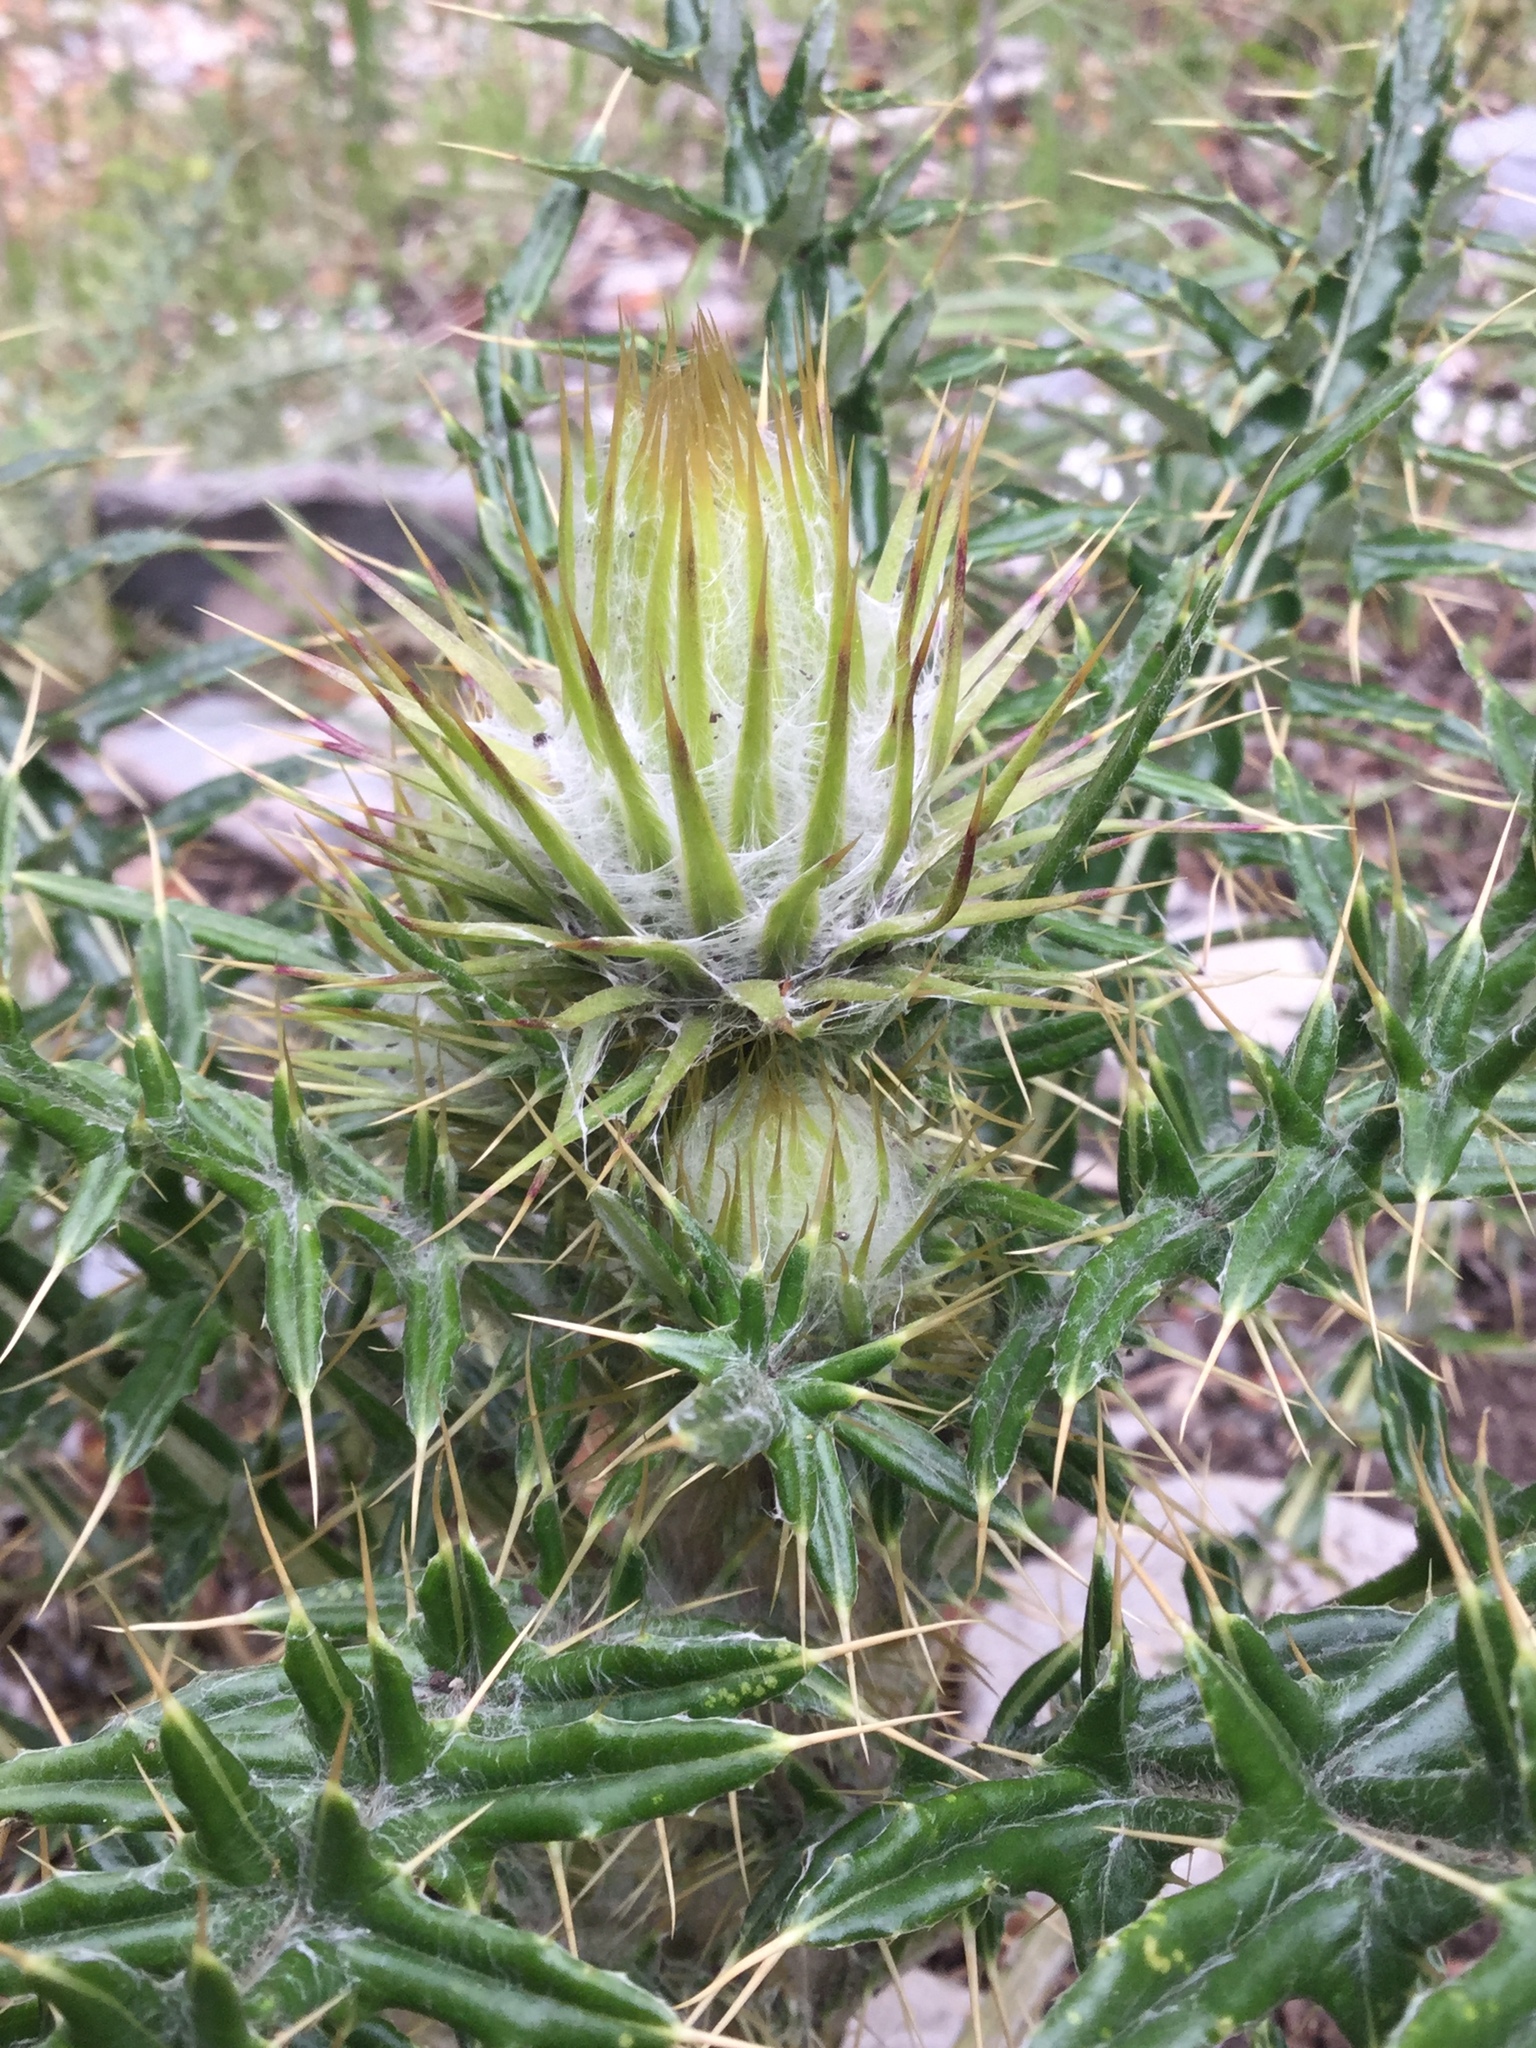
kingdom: Plantae
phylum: Tracheophyta
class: Magnoliopsida
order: Asterales
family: Asteraceae
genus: Cirsium
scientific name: Cirsium zamoranense
